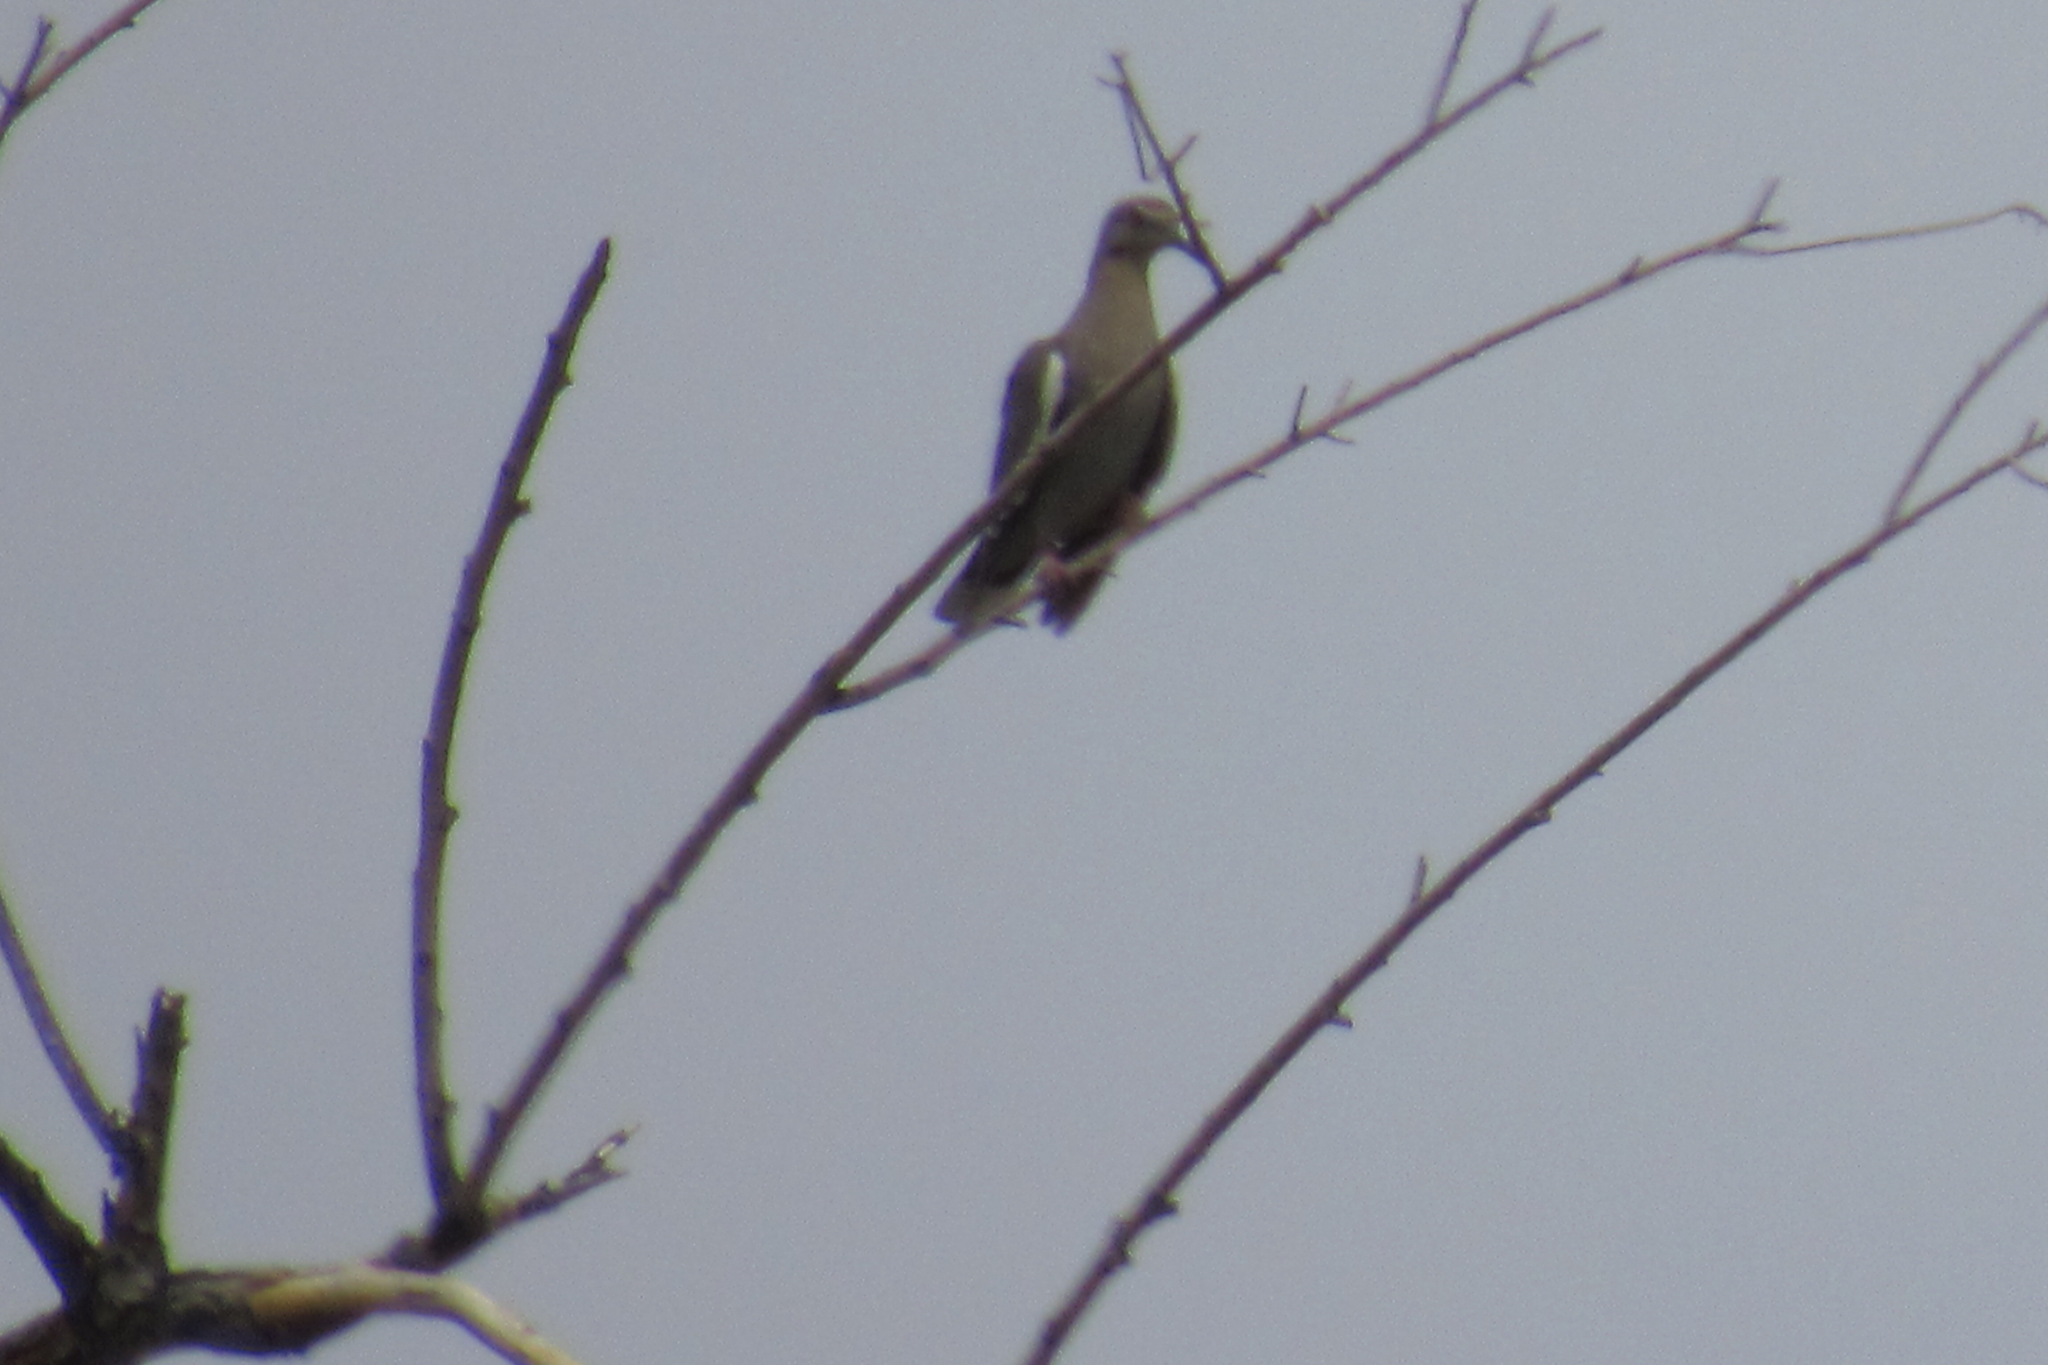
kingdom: Animalia
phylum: Chordata
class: Aves
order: Columbiformes
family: Columbidae
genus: Zenaida
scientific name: Zenaida asiatica
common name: White-winged dove
